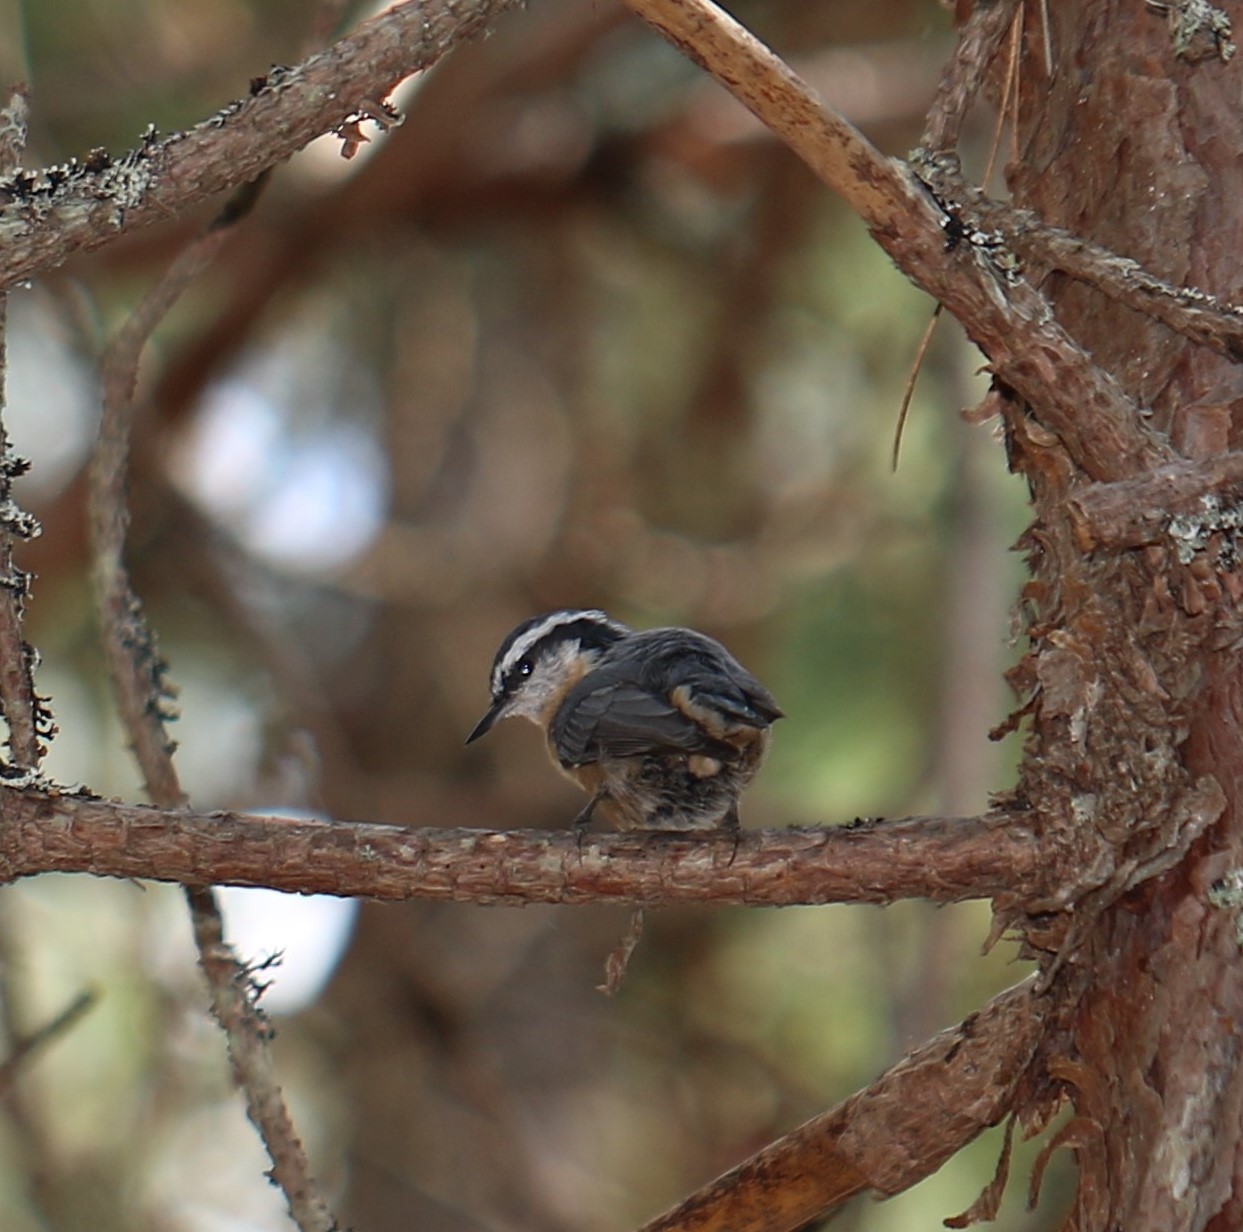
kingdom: Animalia
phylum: Chordata
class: Aves
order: Passeriformes
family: Sittidae
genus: Sitta
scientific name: Sitta canadensis
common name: Red-breasted nuthatch
